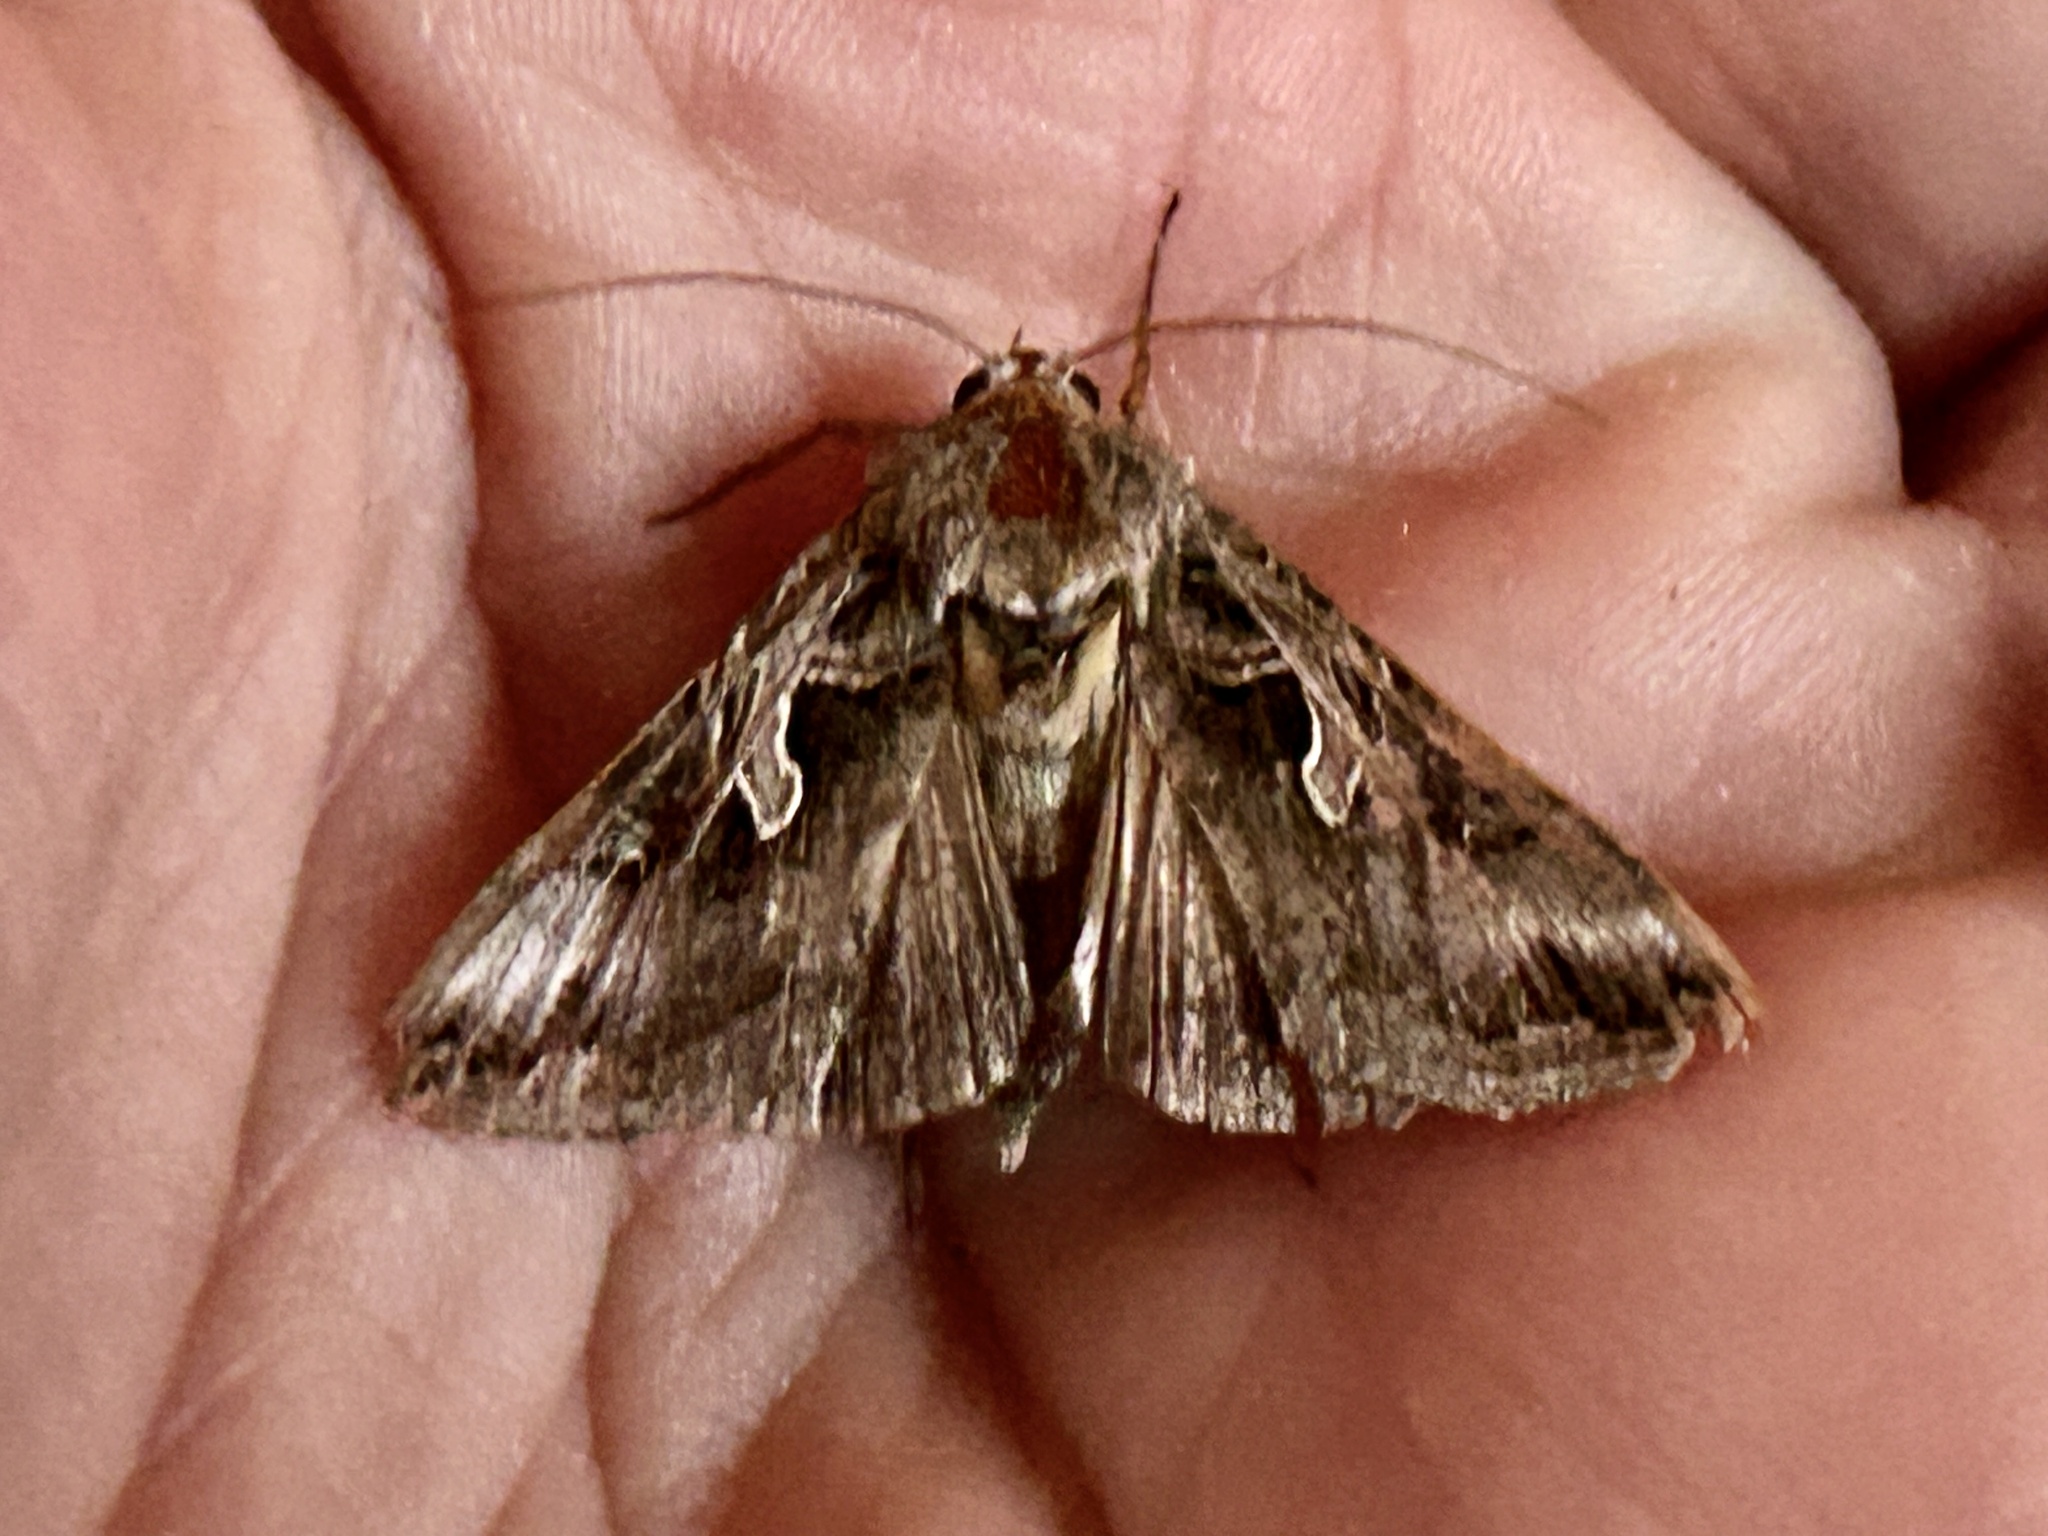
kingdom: Animalia
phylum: Arthropoda
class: Insecta
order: Lepidoptera
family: Noctuidae
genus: Cornutiplusia
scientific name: Cornutiplusia circumflexa
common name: Yorkshire y
